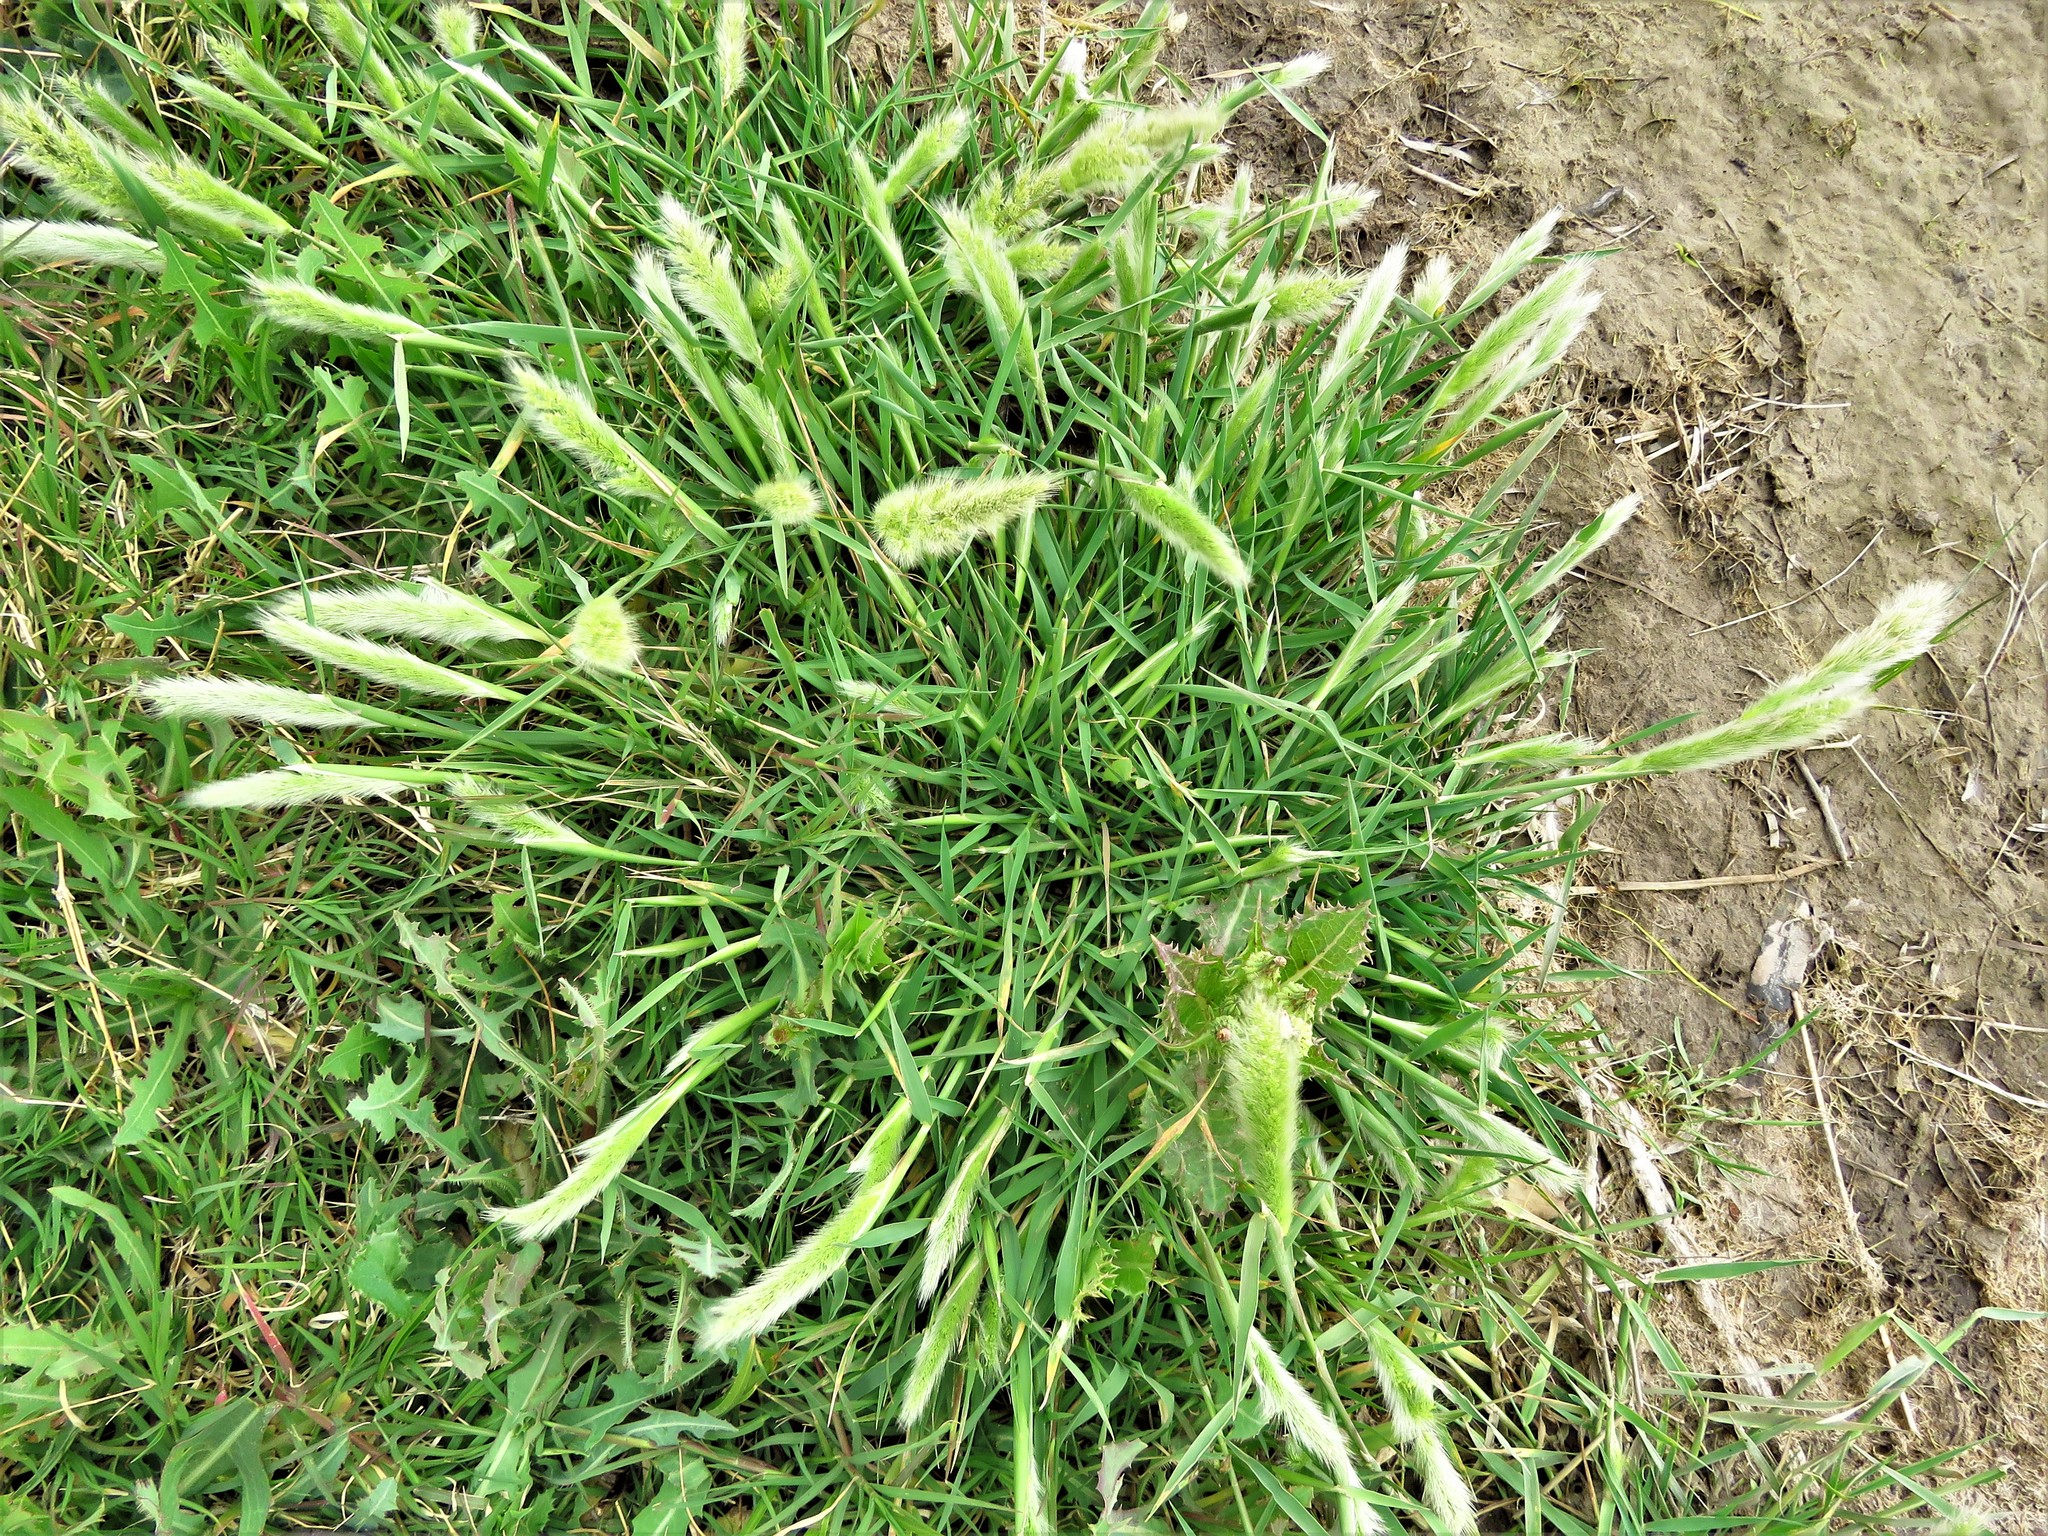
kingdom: Plantae
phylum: Tracheophyta
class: Liliopsida
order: Poales
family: Poaceae
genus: Polypogon
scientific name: Polypogon monspeliensis
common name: Annual rabbitsfoot grass
